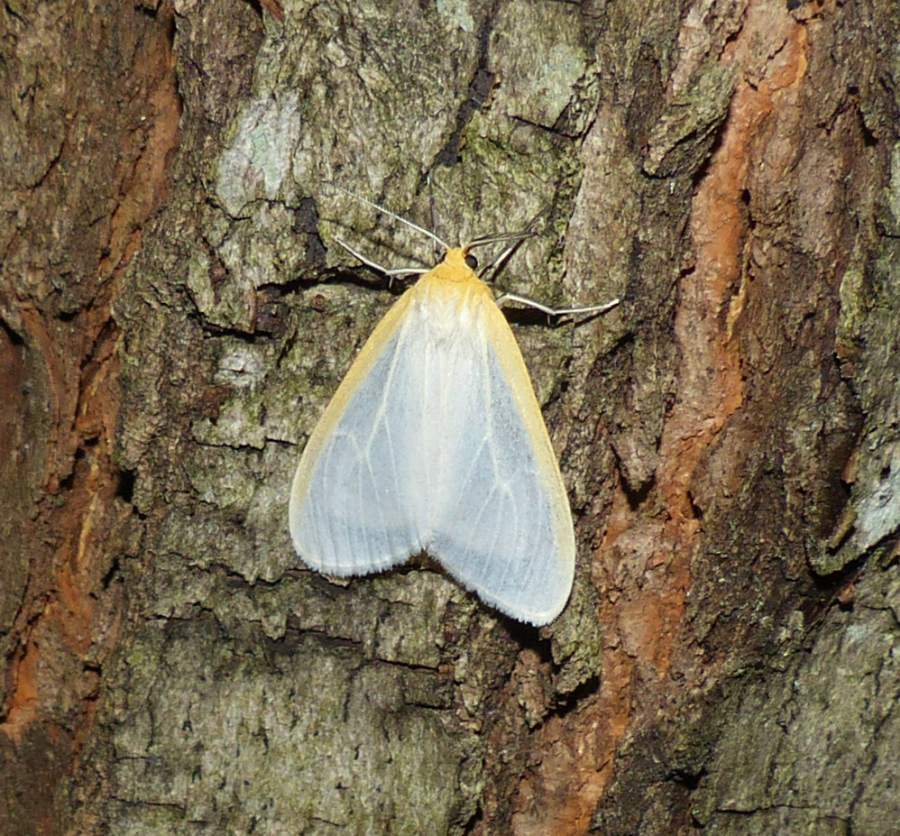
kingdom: Animalia
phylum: Arthropoda
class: Insecta
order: Lepidoptera
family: Erebidae
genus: Cycnia
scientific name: Cycnia tenera
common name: Delicate cycnia moth
